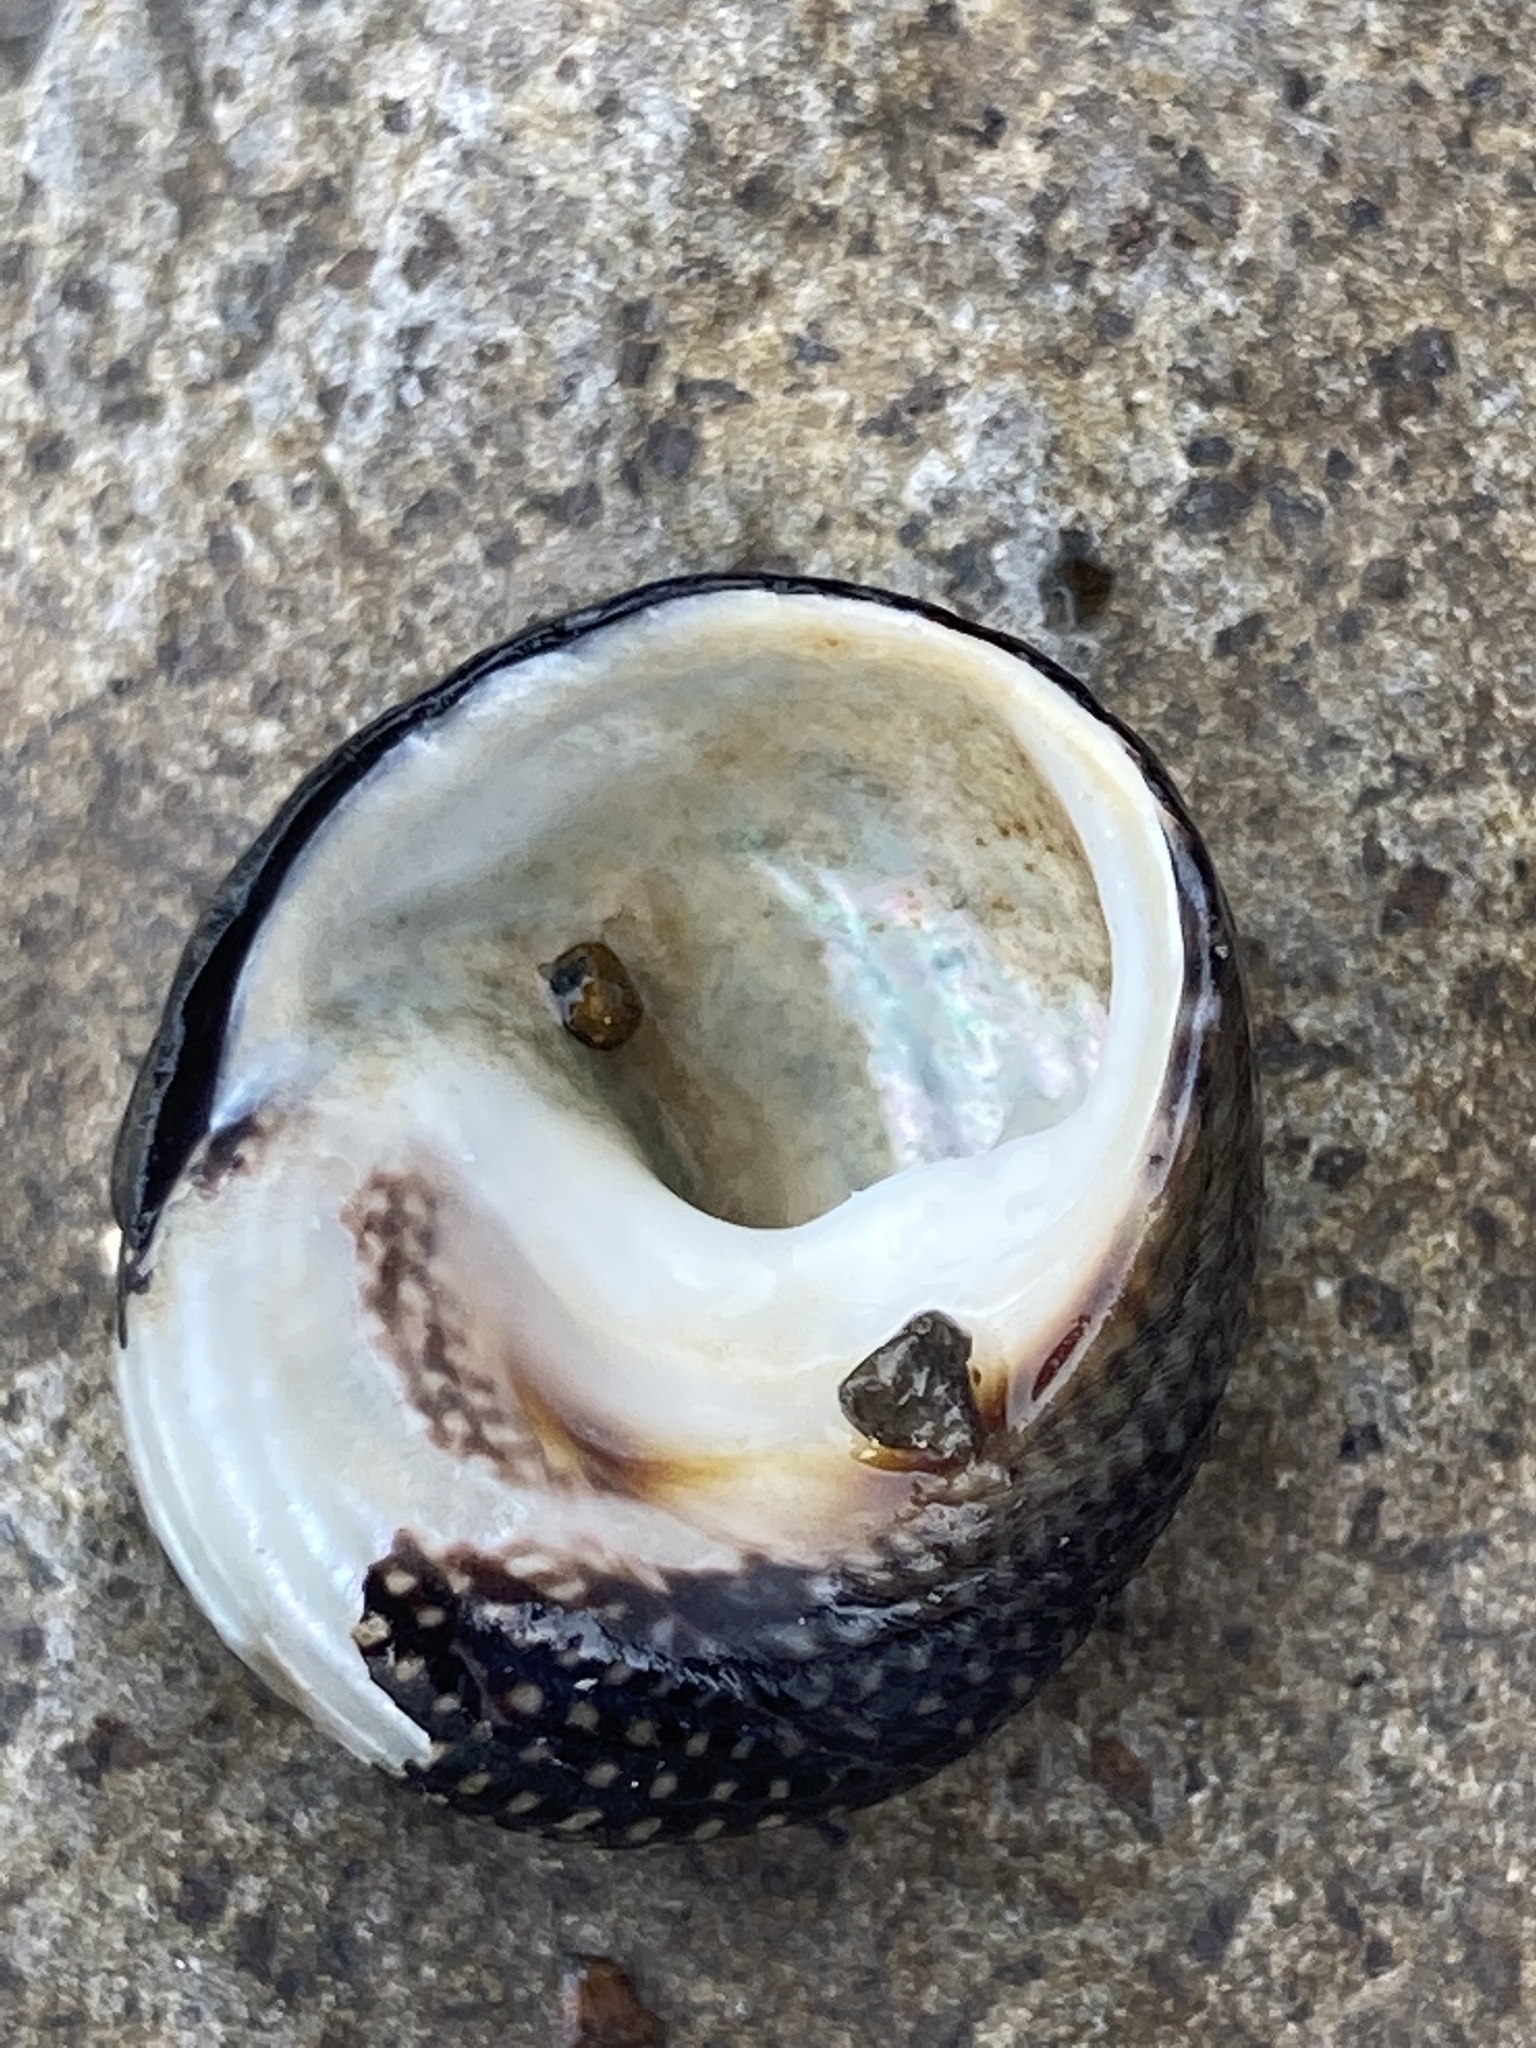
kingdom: Animalia
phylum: Mollusca
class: Gastropoda
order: Trochida
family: Trochidae
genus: Diloma
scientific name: Diloma aethiops
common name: Scorched monodont
